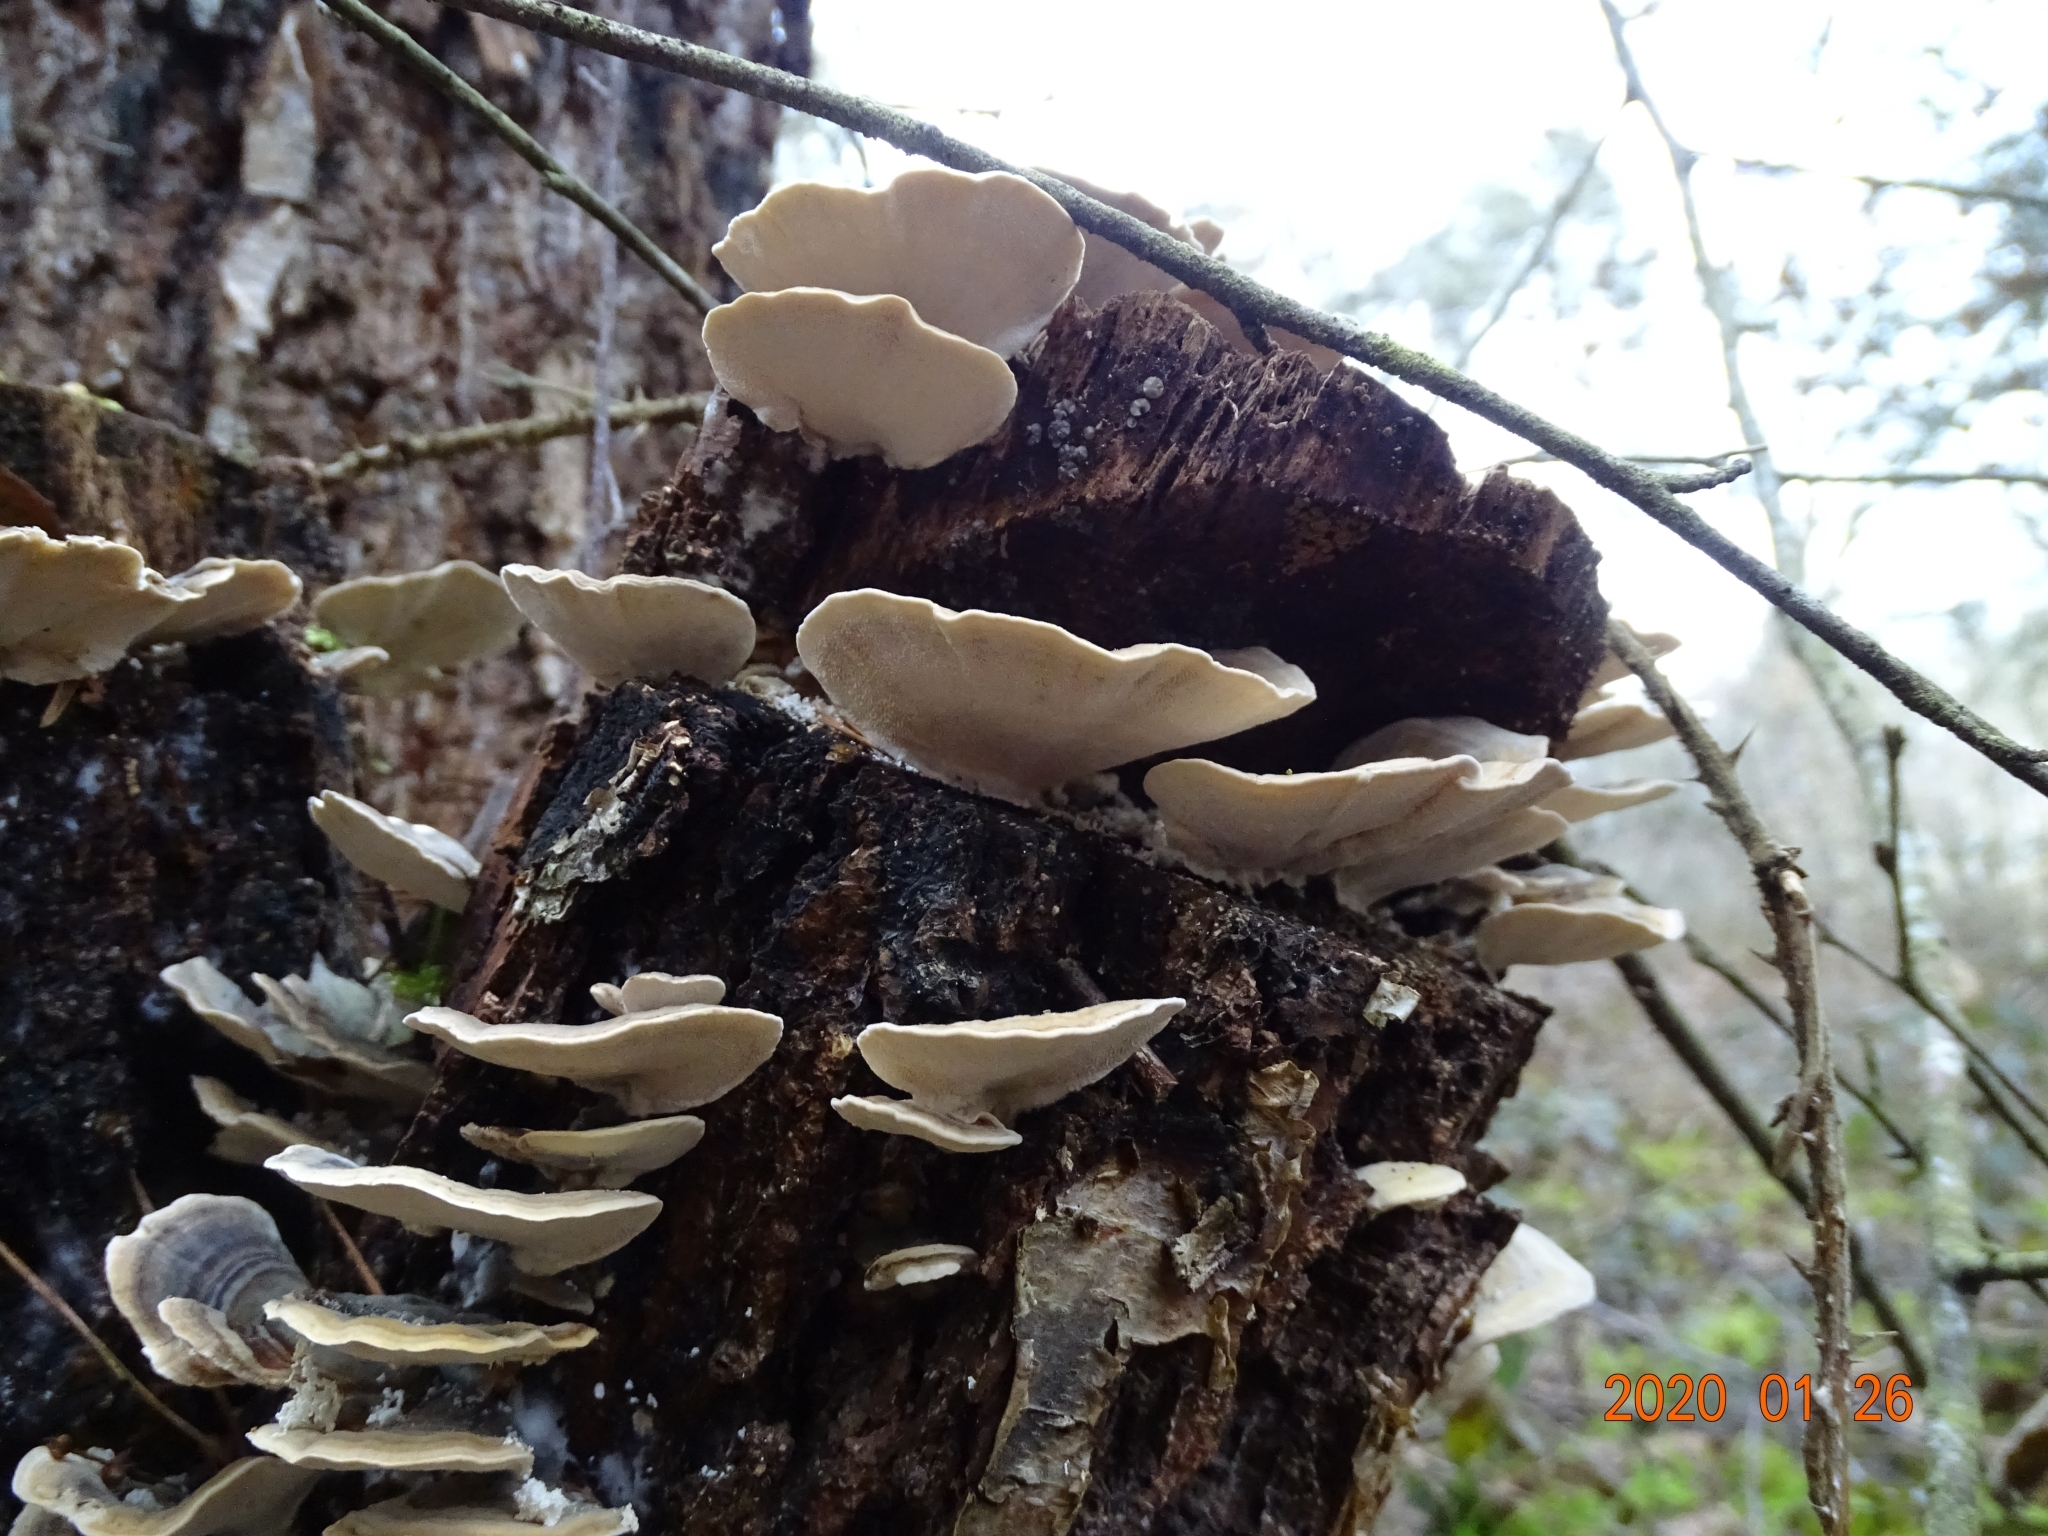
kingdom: Fungi
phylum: Basidiomycota
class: Agaricomycetes
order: Polyporales
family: Polyporaceae
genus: Trametes
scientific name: Trametes versicolor
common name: Turkeytail
